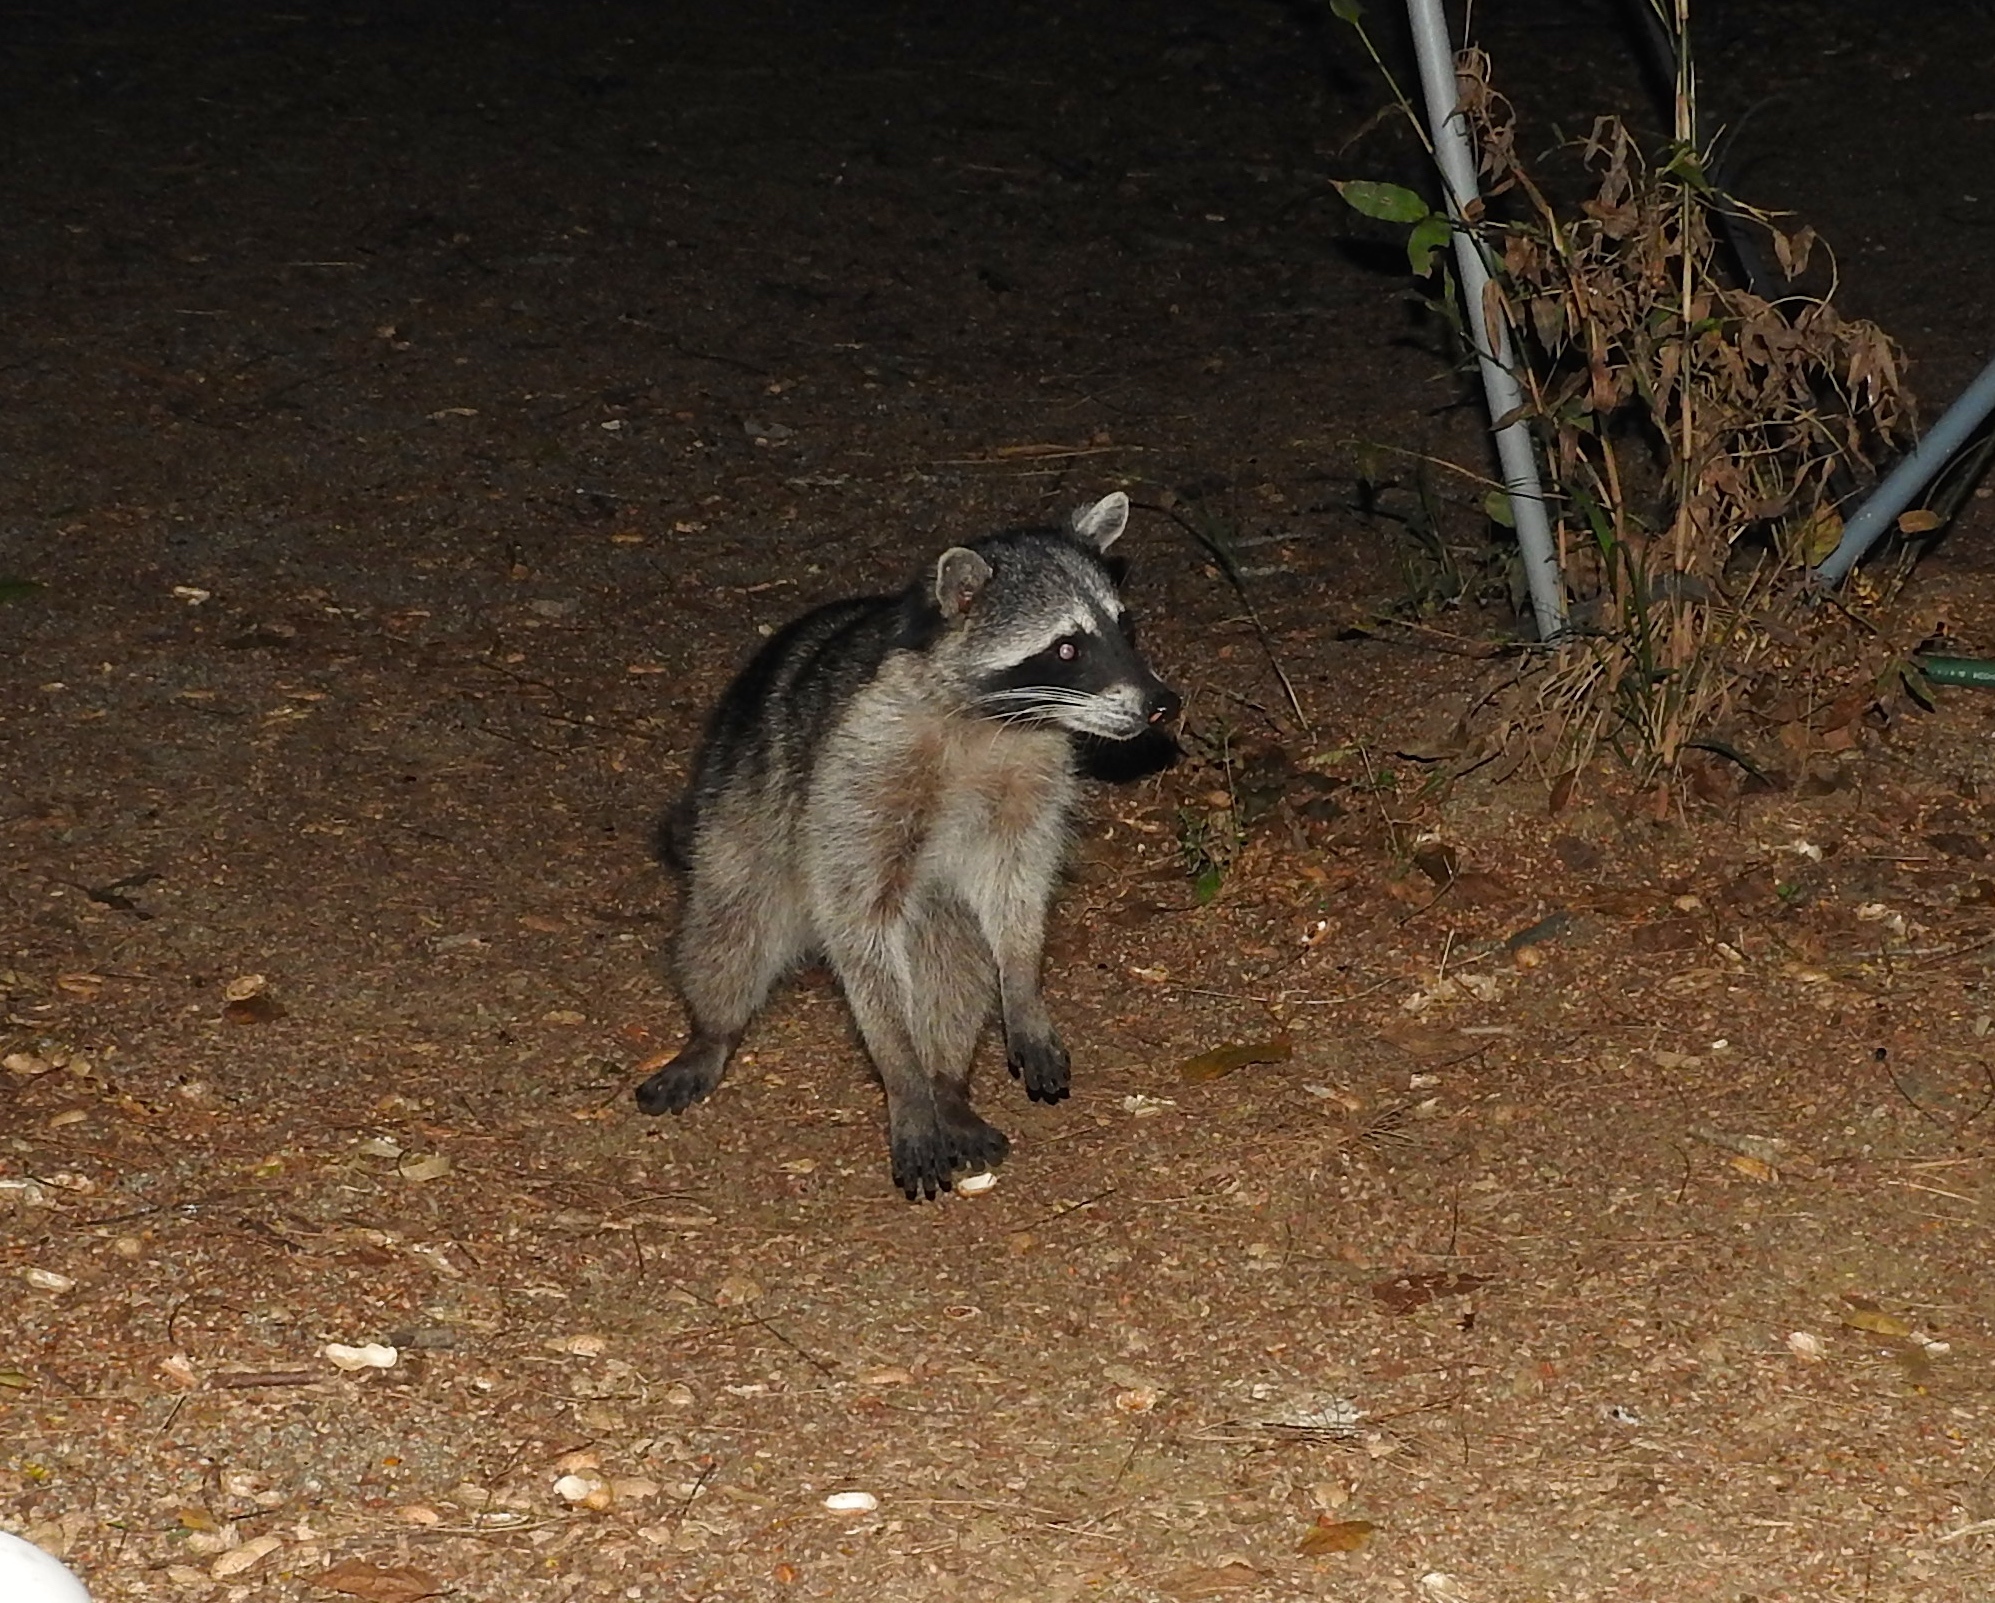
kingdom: Animalia
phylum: Chordata
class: Mammalia
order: Carnivora
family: Procyonidae
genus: Procyon
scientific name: Procyon lotor
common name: Raccoon
